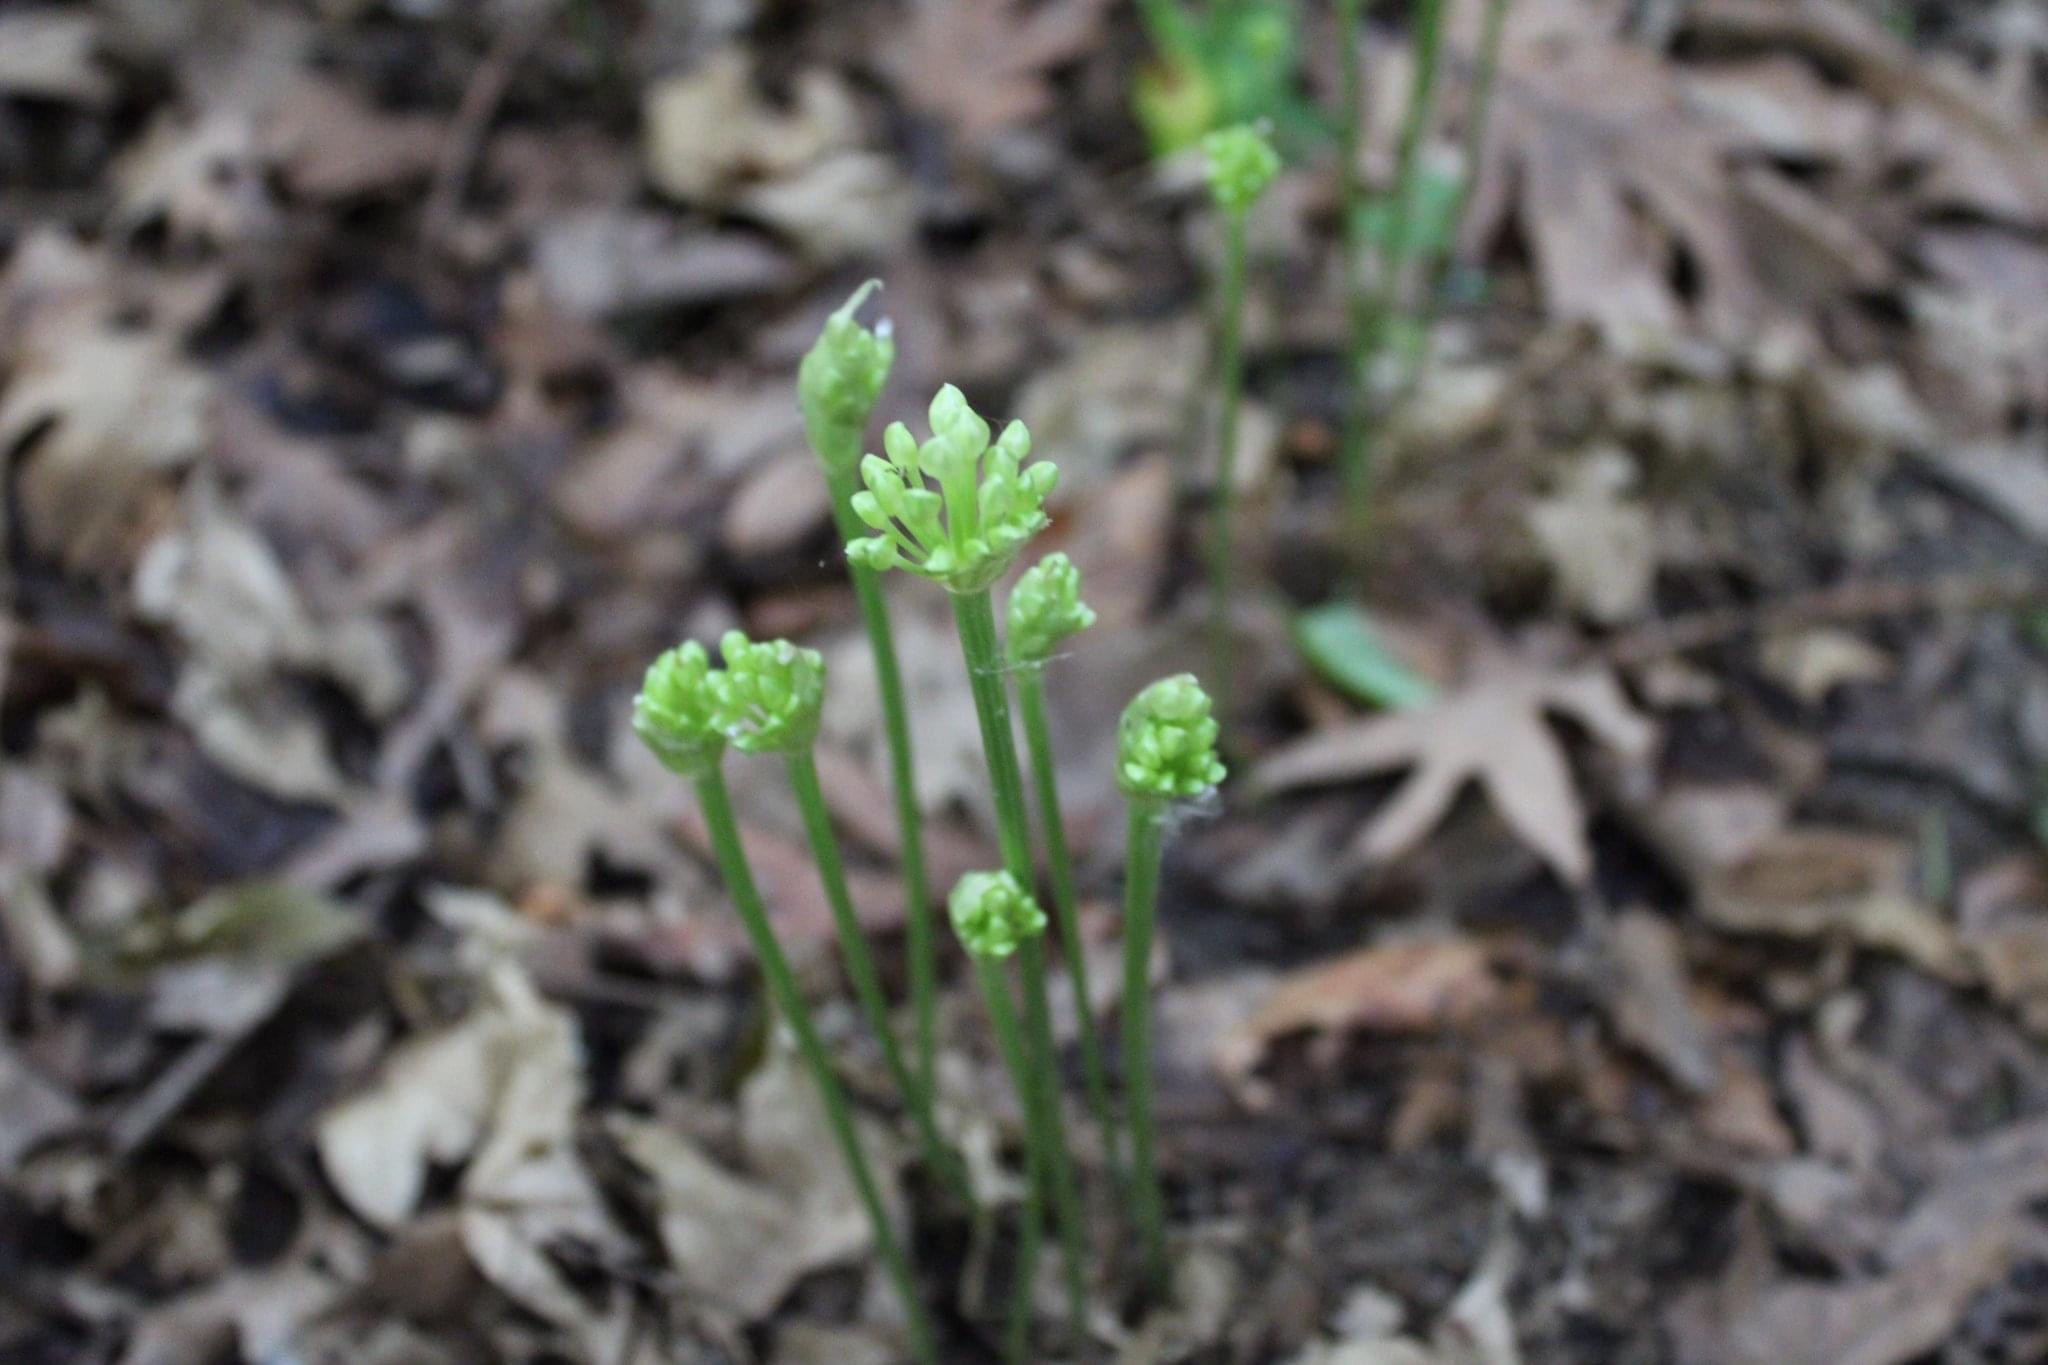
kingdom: Plantae
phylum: Tracheophyta
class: Liliopsida
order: Asparagales
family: Amaryllidaceae
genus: Allium
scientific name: Allium tricoccum
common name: Ramp
